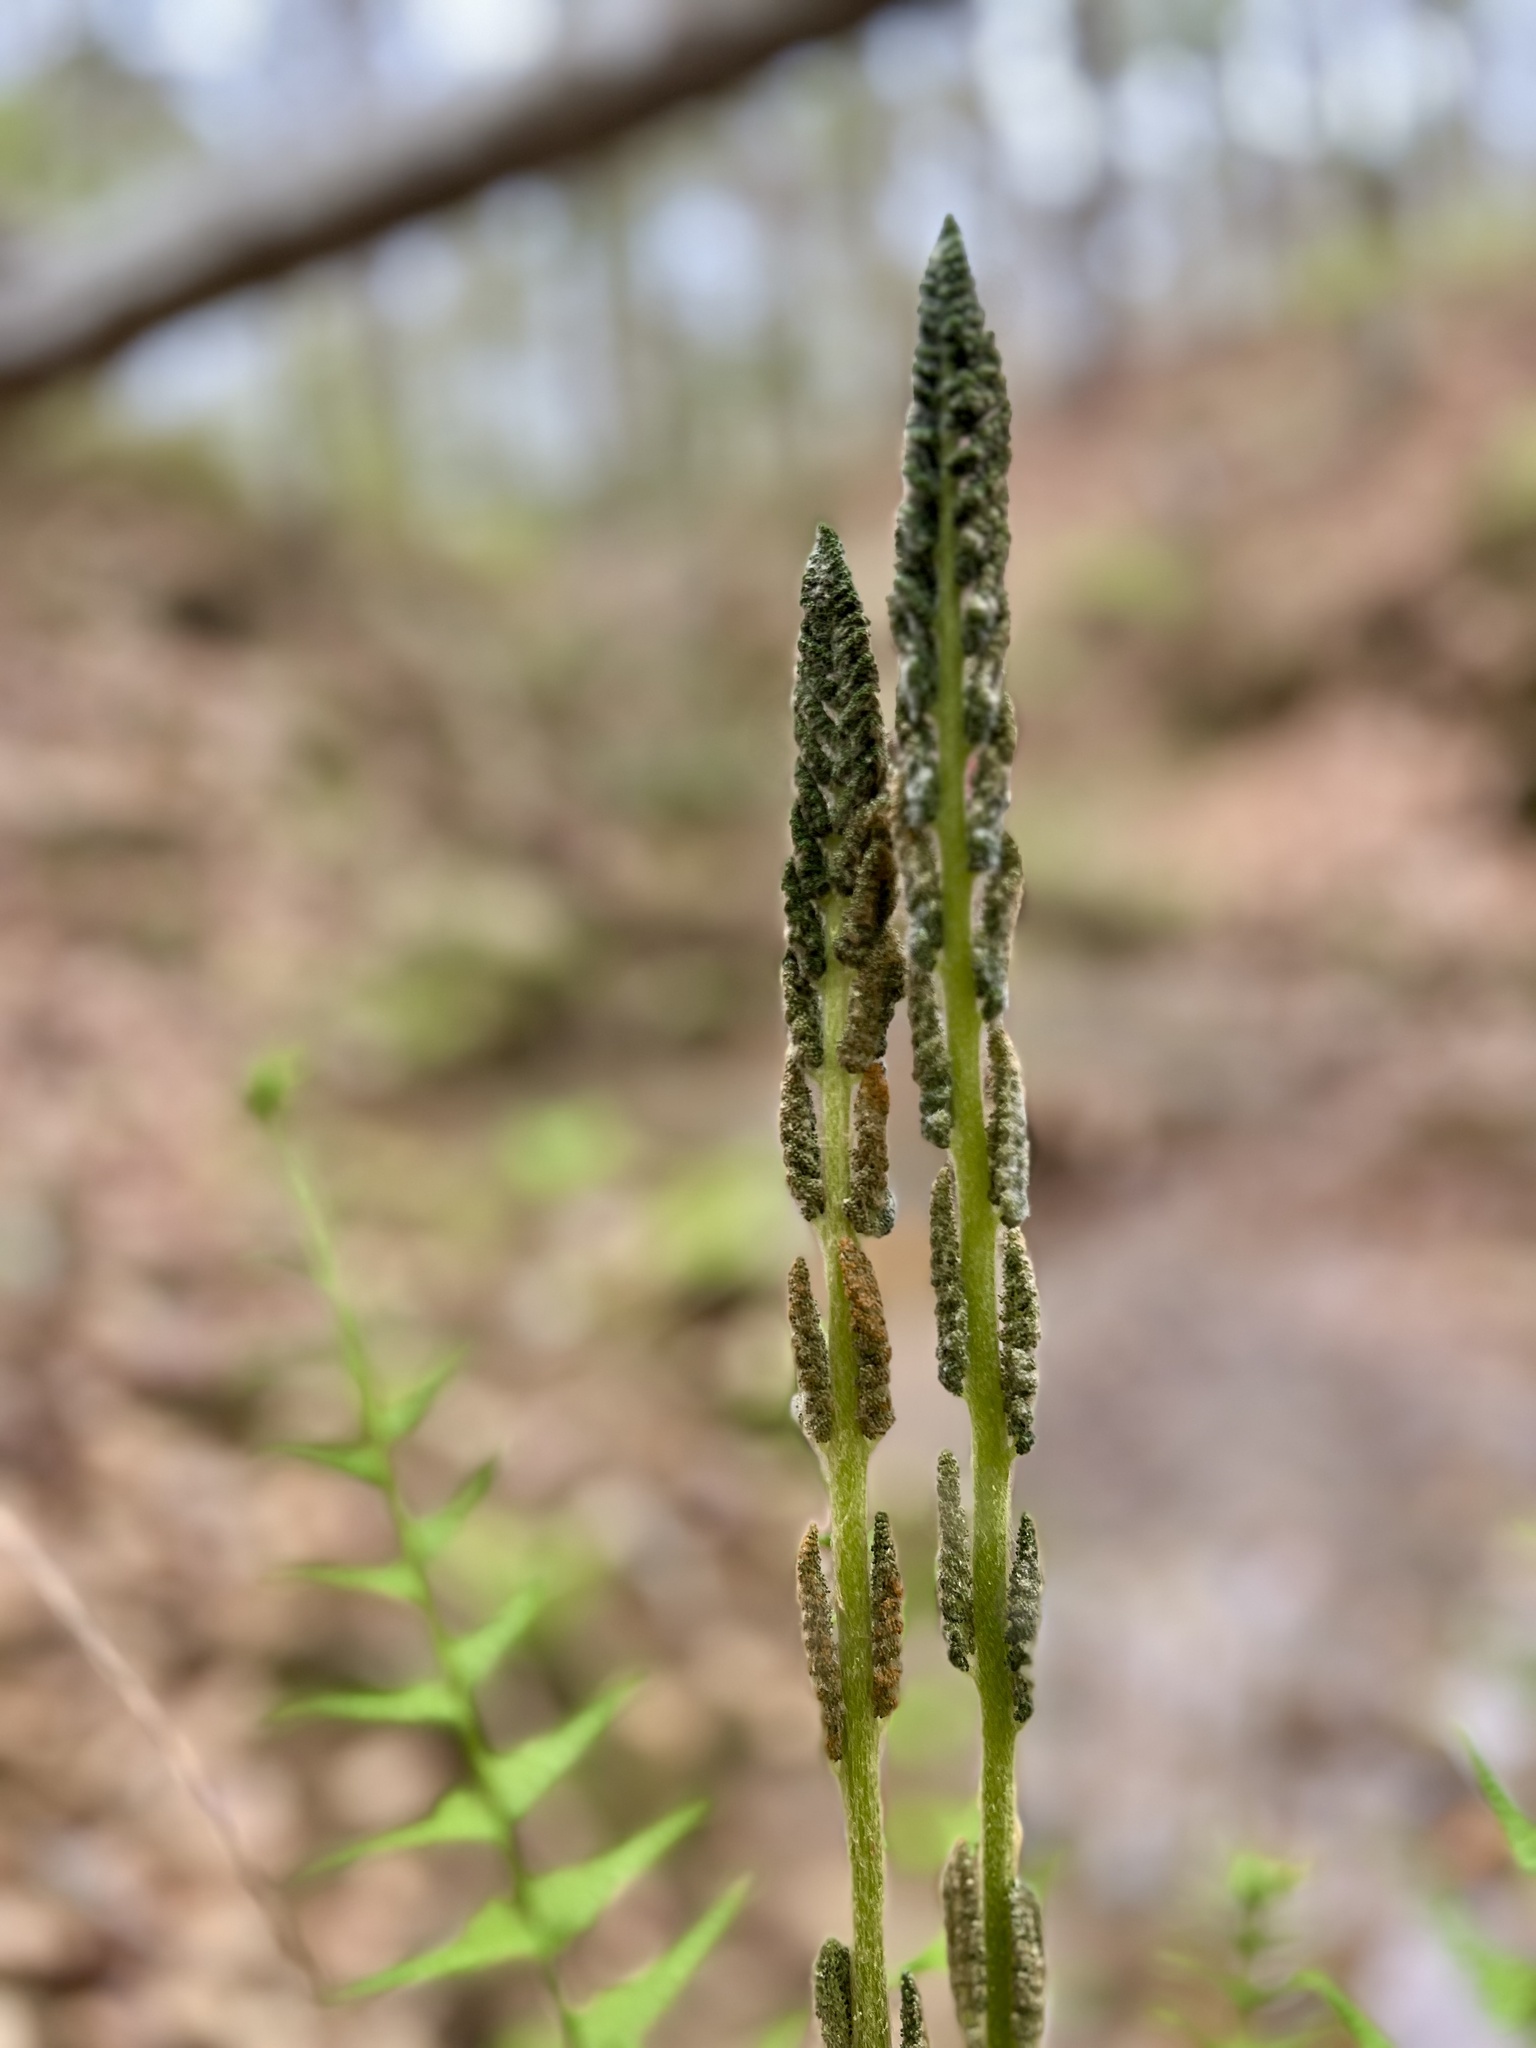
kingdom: Plantae
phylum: Tracheophyta
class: Polypodiopsida
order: Osmundales
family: Osmundaceae
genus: Osmundastrum
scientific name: Osmundastrum cinnamomeum
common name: Cinnamon fern
